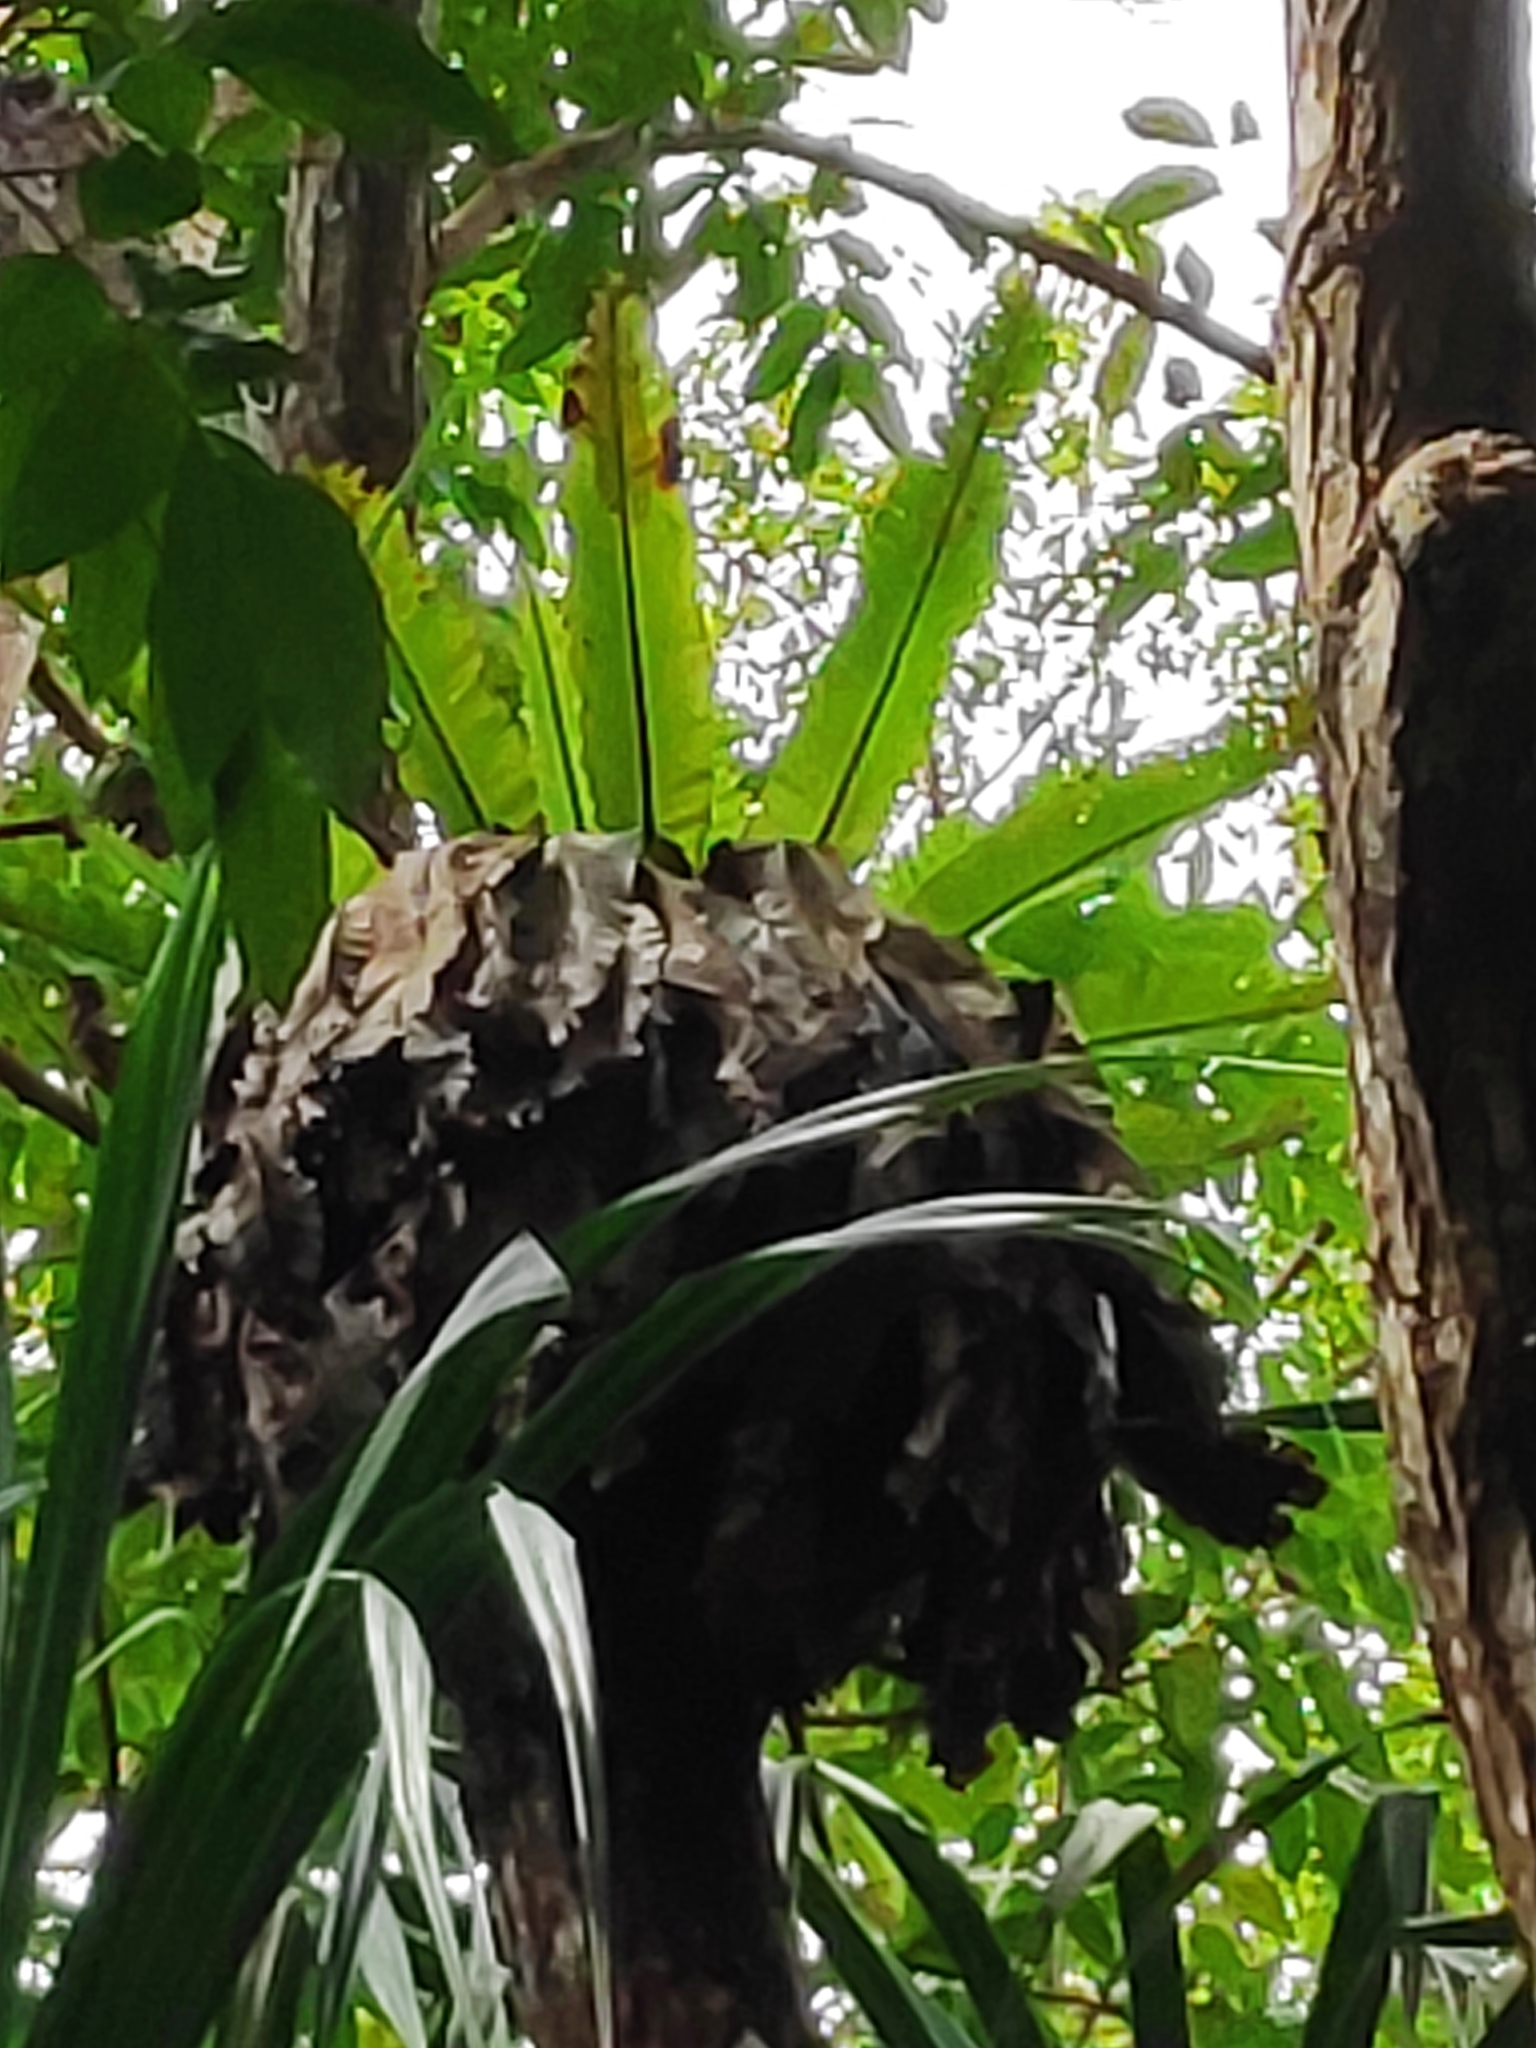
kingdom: Plantae
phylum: Tracheophyta
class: Polypodiopsida
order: Polypodiales
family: Aspleniaceae
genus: Asplenium
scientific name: Asplenium nidus
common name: Bird's-nest fern
